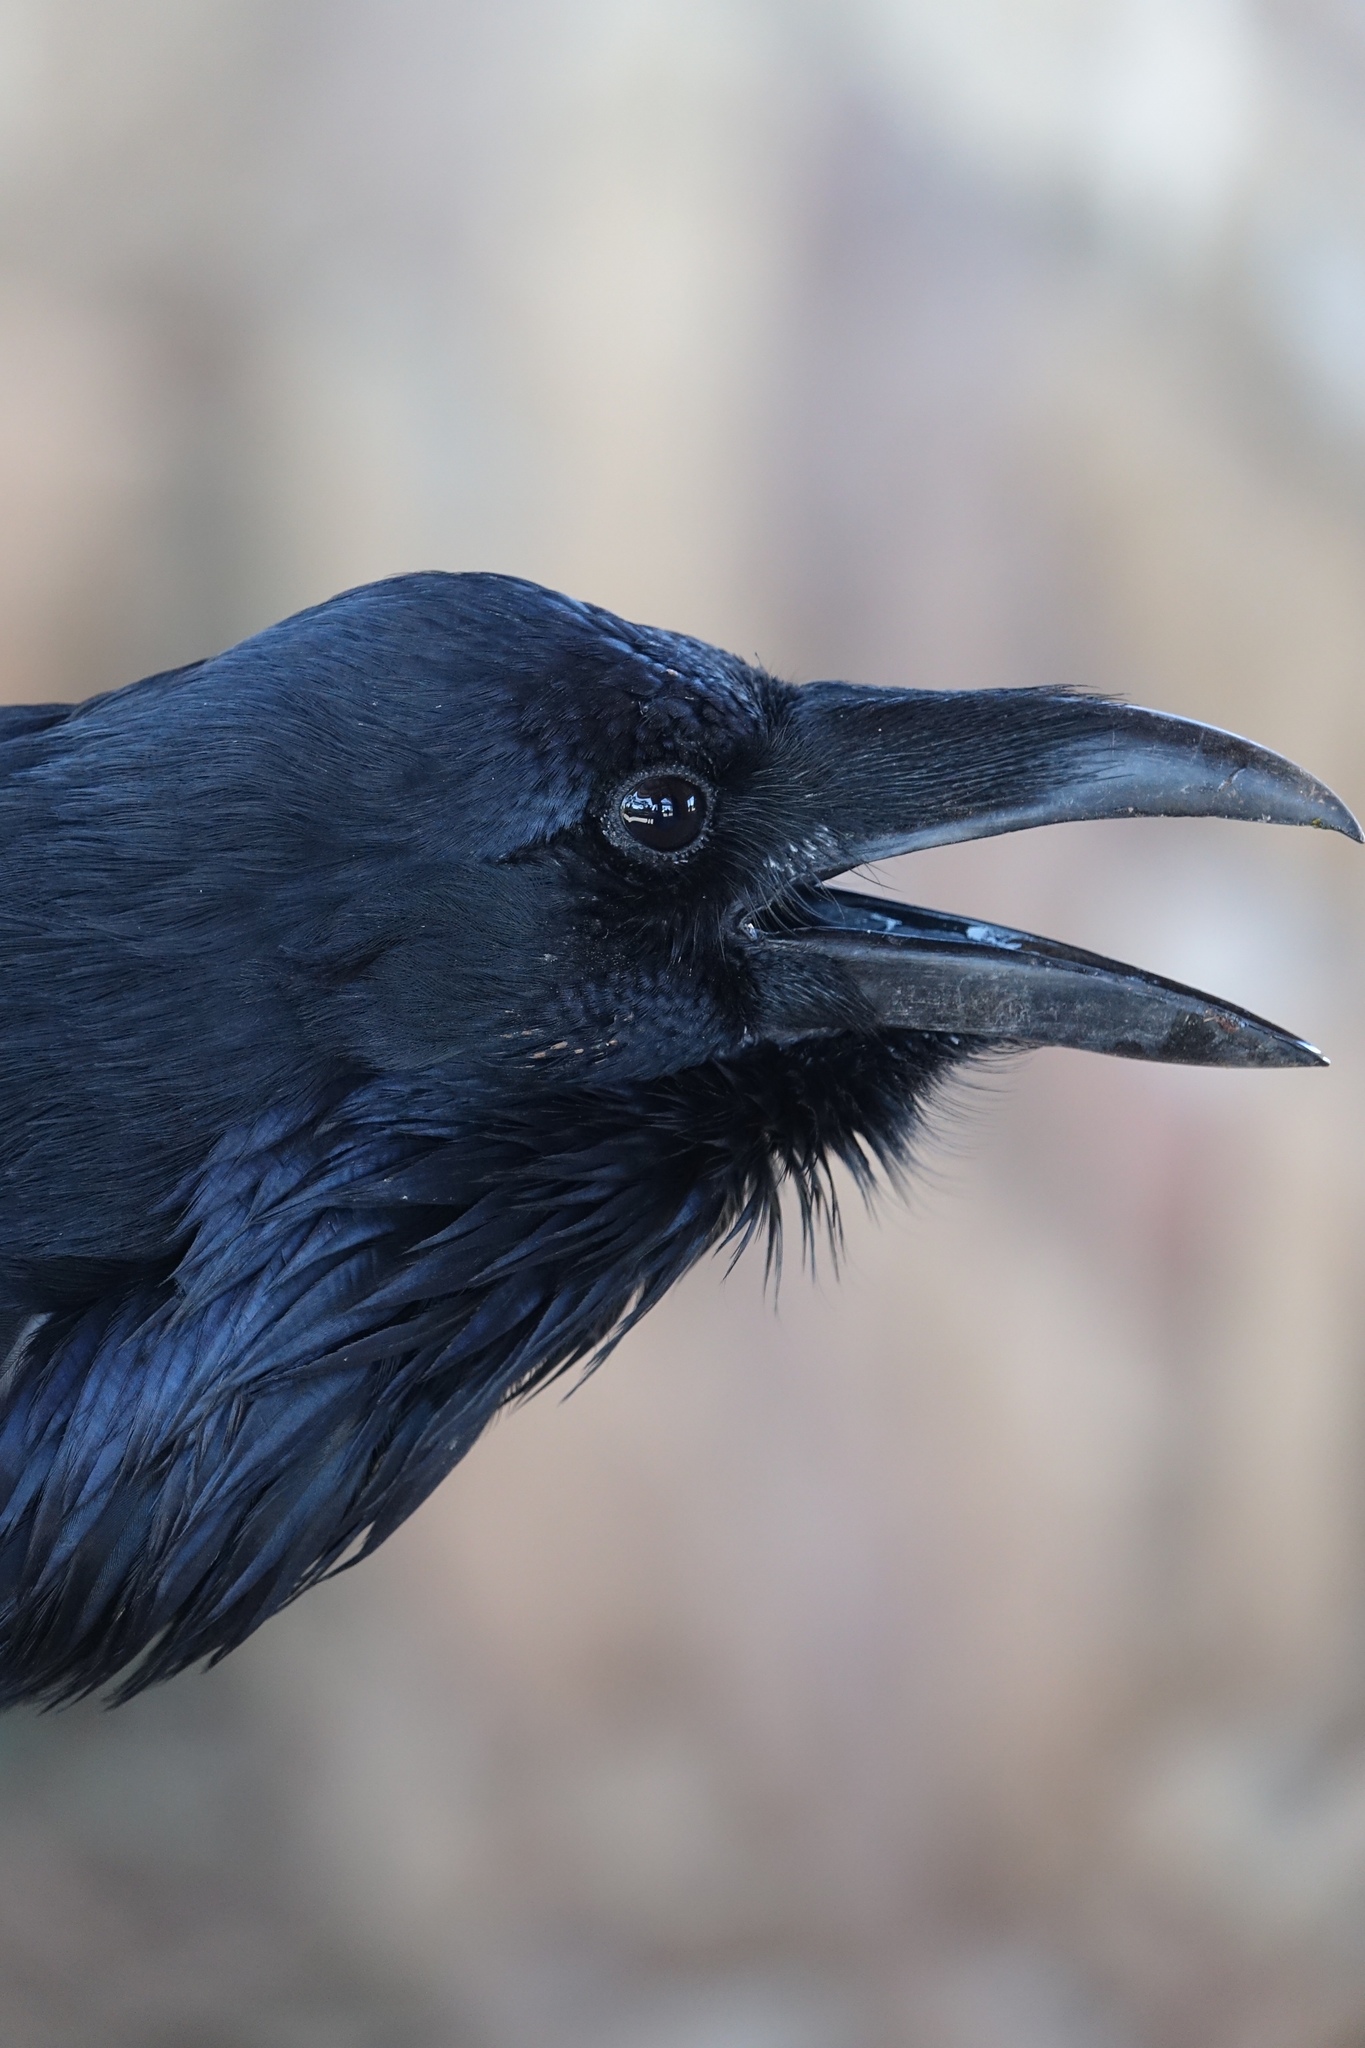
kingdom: Animalia
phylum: Chordata
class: Aves
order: Passeriformes
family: Corvidae
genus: Corvus
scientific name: Corvus corax
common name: Common raven
